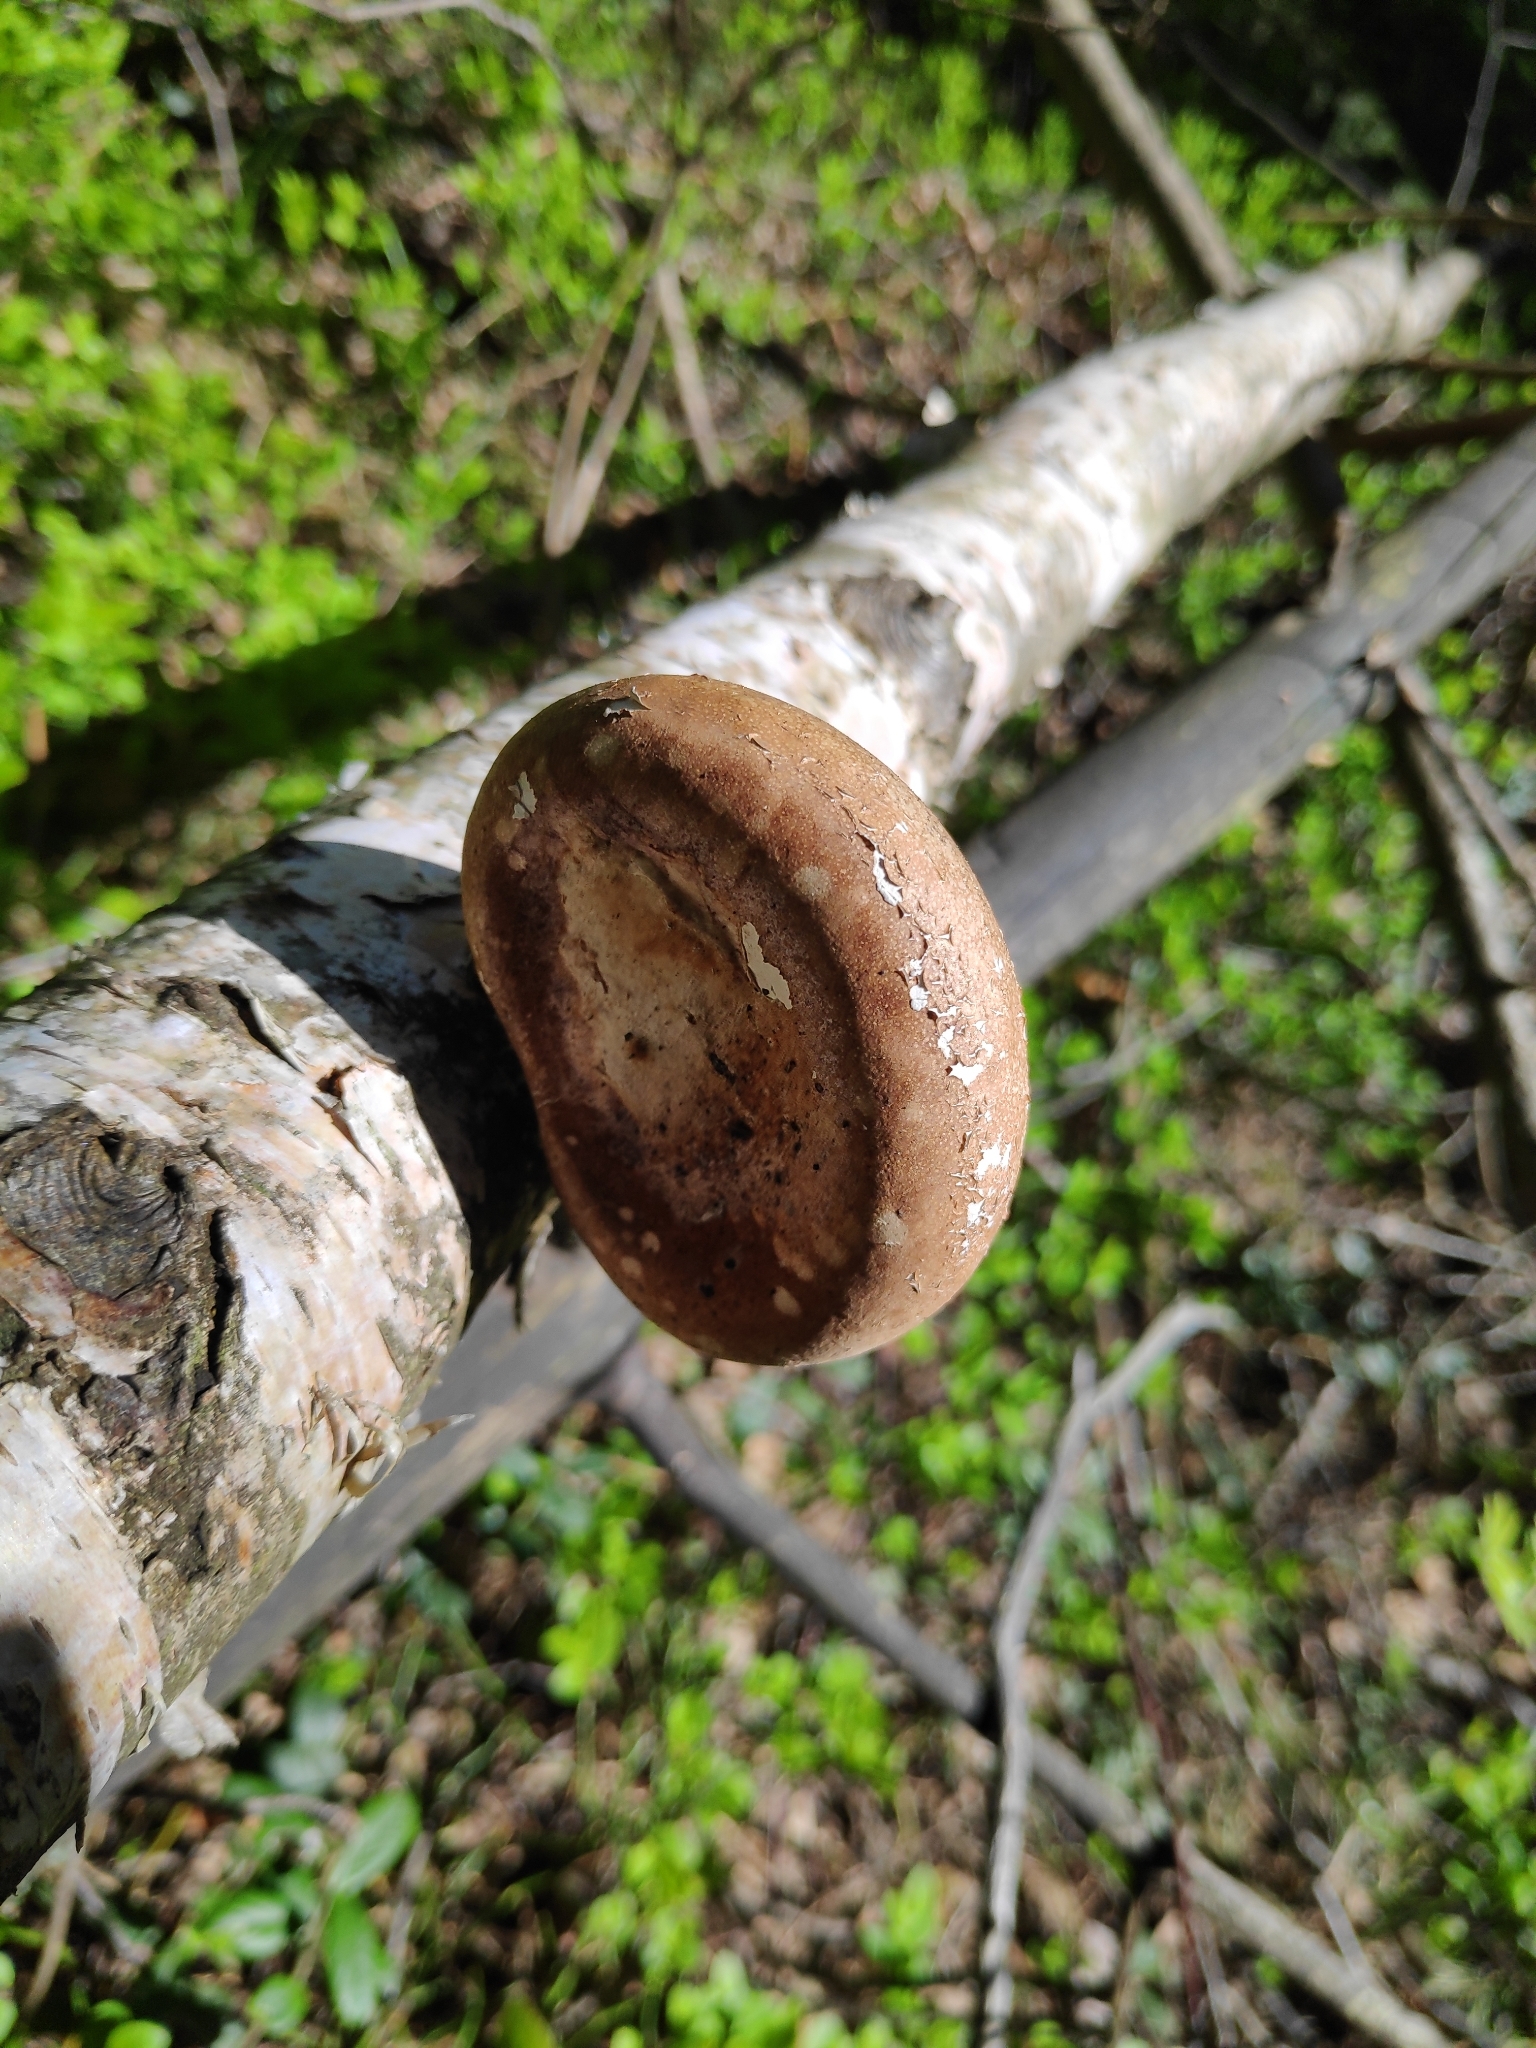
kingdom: Fungi
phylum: Basidiomycota
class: Agaricomycetes
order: Polyporales
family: Fomitopsidaceae
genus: Fomitopsis
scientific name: Fomitopsis betulina
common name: Birch polypore
